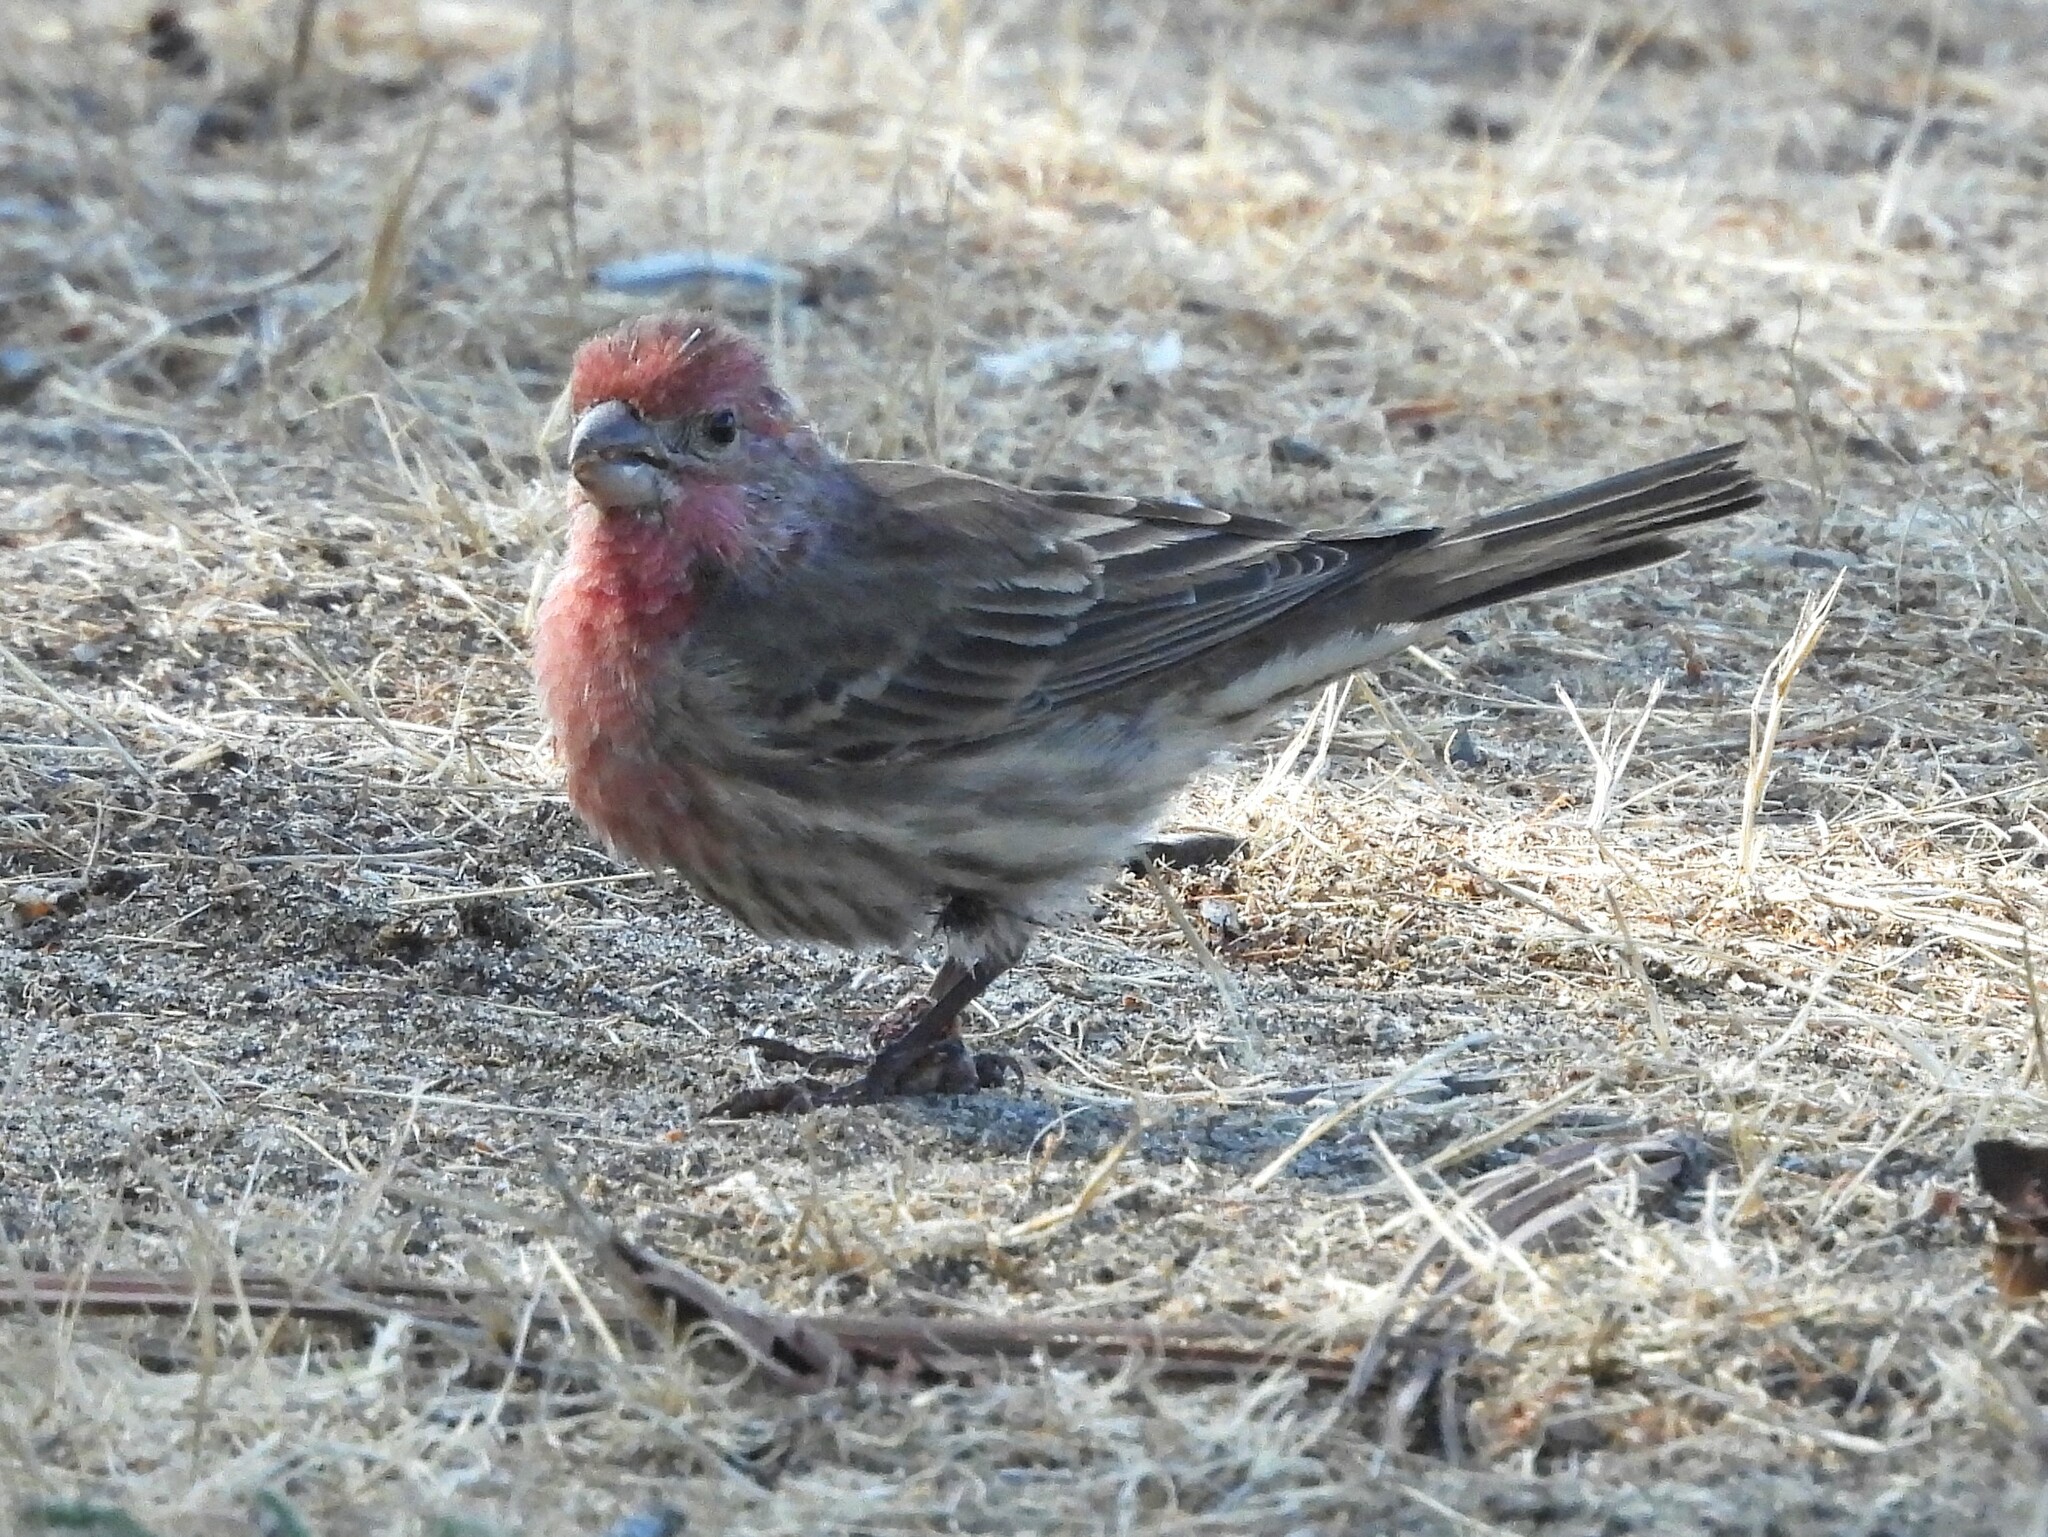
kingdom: Animalia
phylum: Chordata
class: Aves
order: Passeriformes
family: Fringillidae
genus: Haemorhous
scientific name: Haemorhous mexicanus
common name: House finch
